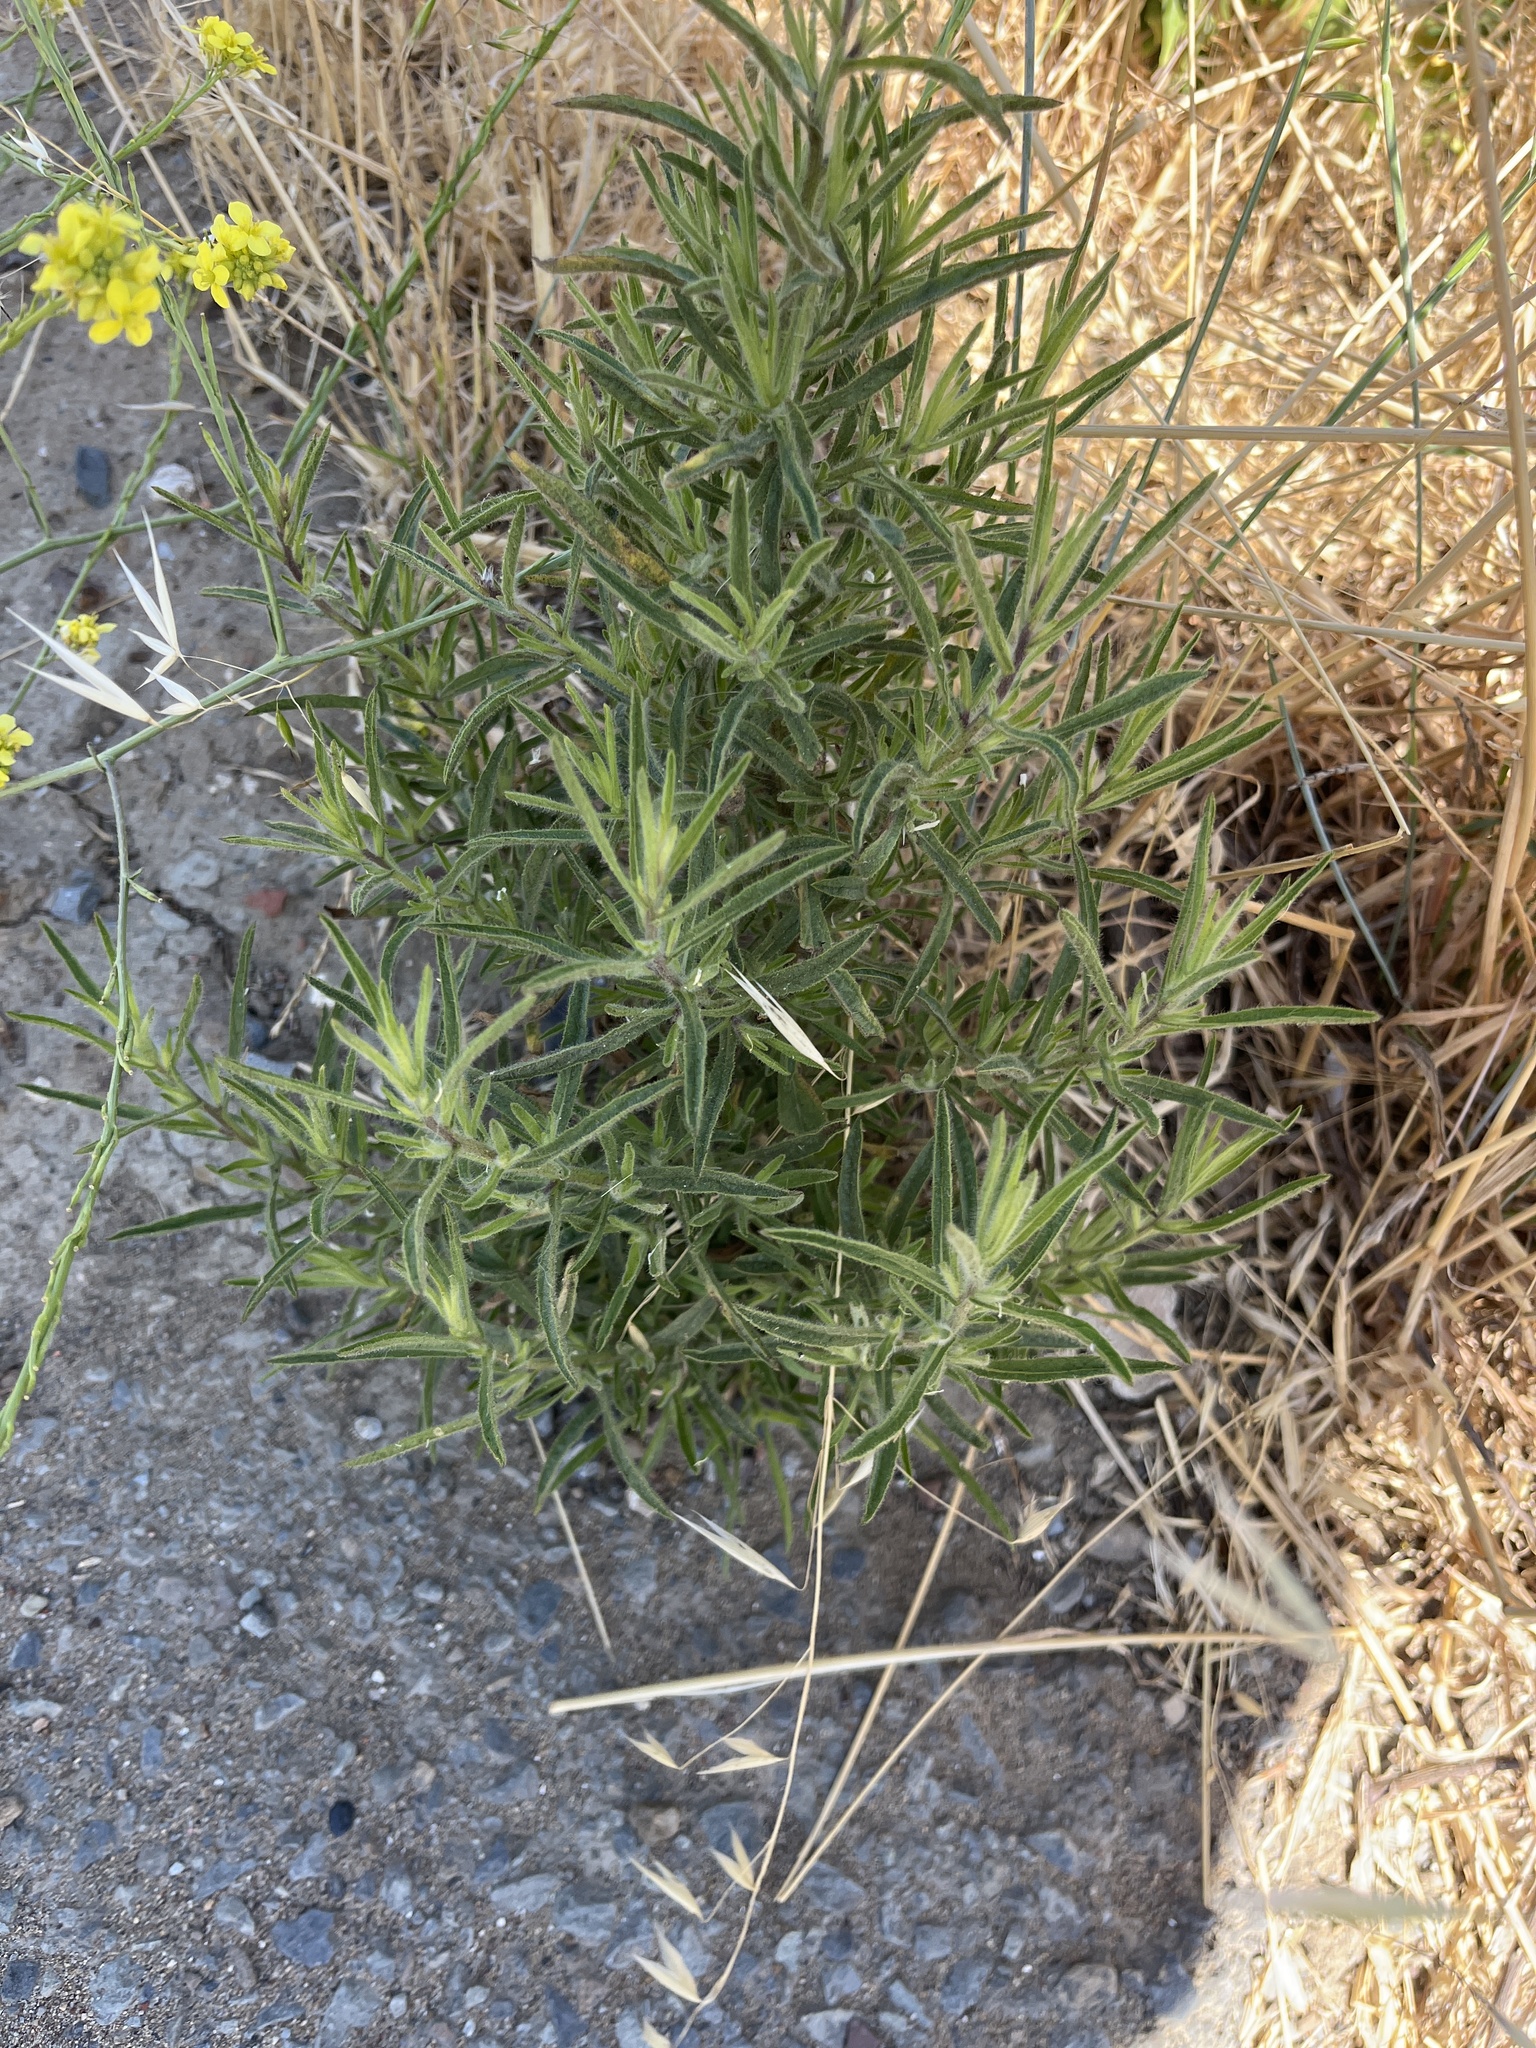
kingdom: Plantae
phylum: Tracheophyta
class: Magnoliopsida
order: Asterales
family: Asteraceae
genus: Dittrichia
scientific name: Dittrichia graveolens
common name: Stinking fleabane
